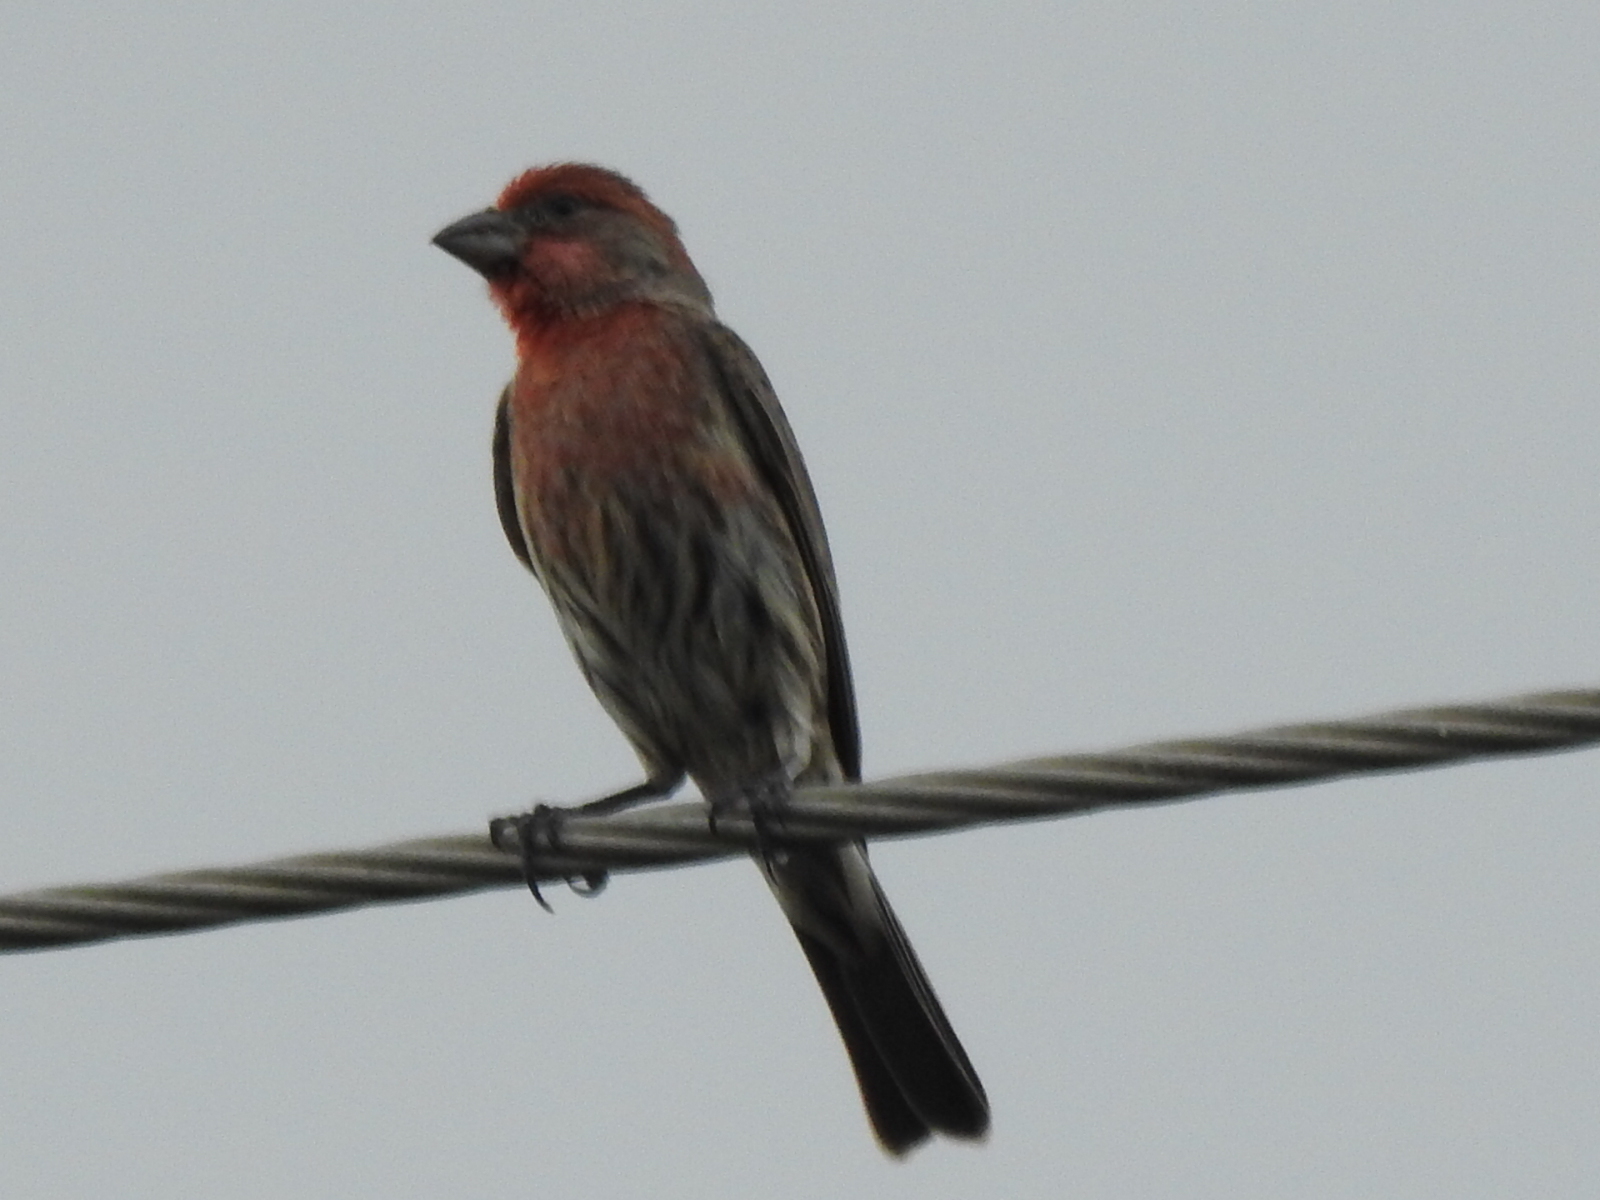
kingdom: Animalia
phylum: Chordata
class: Aves
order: Passeriformes
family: Fringillidae
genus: Haemorhous
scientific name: Haemorhous mexicanus
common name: House finch
